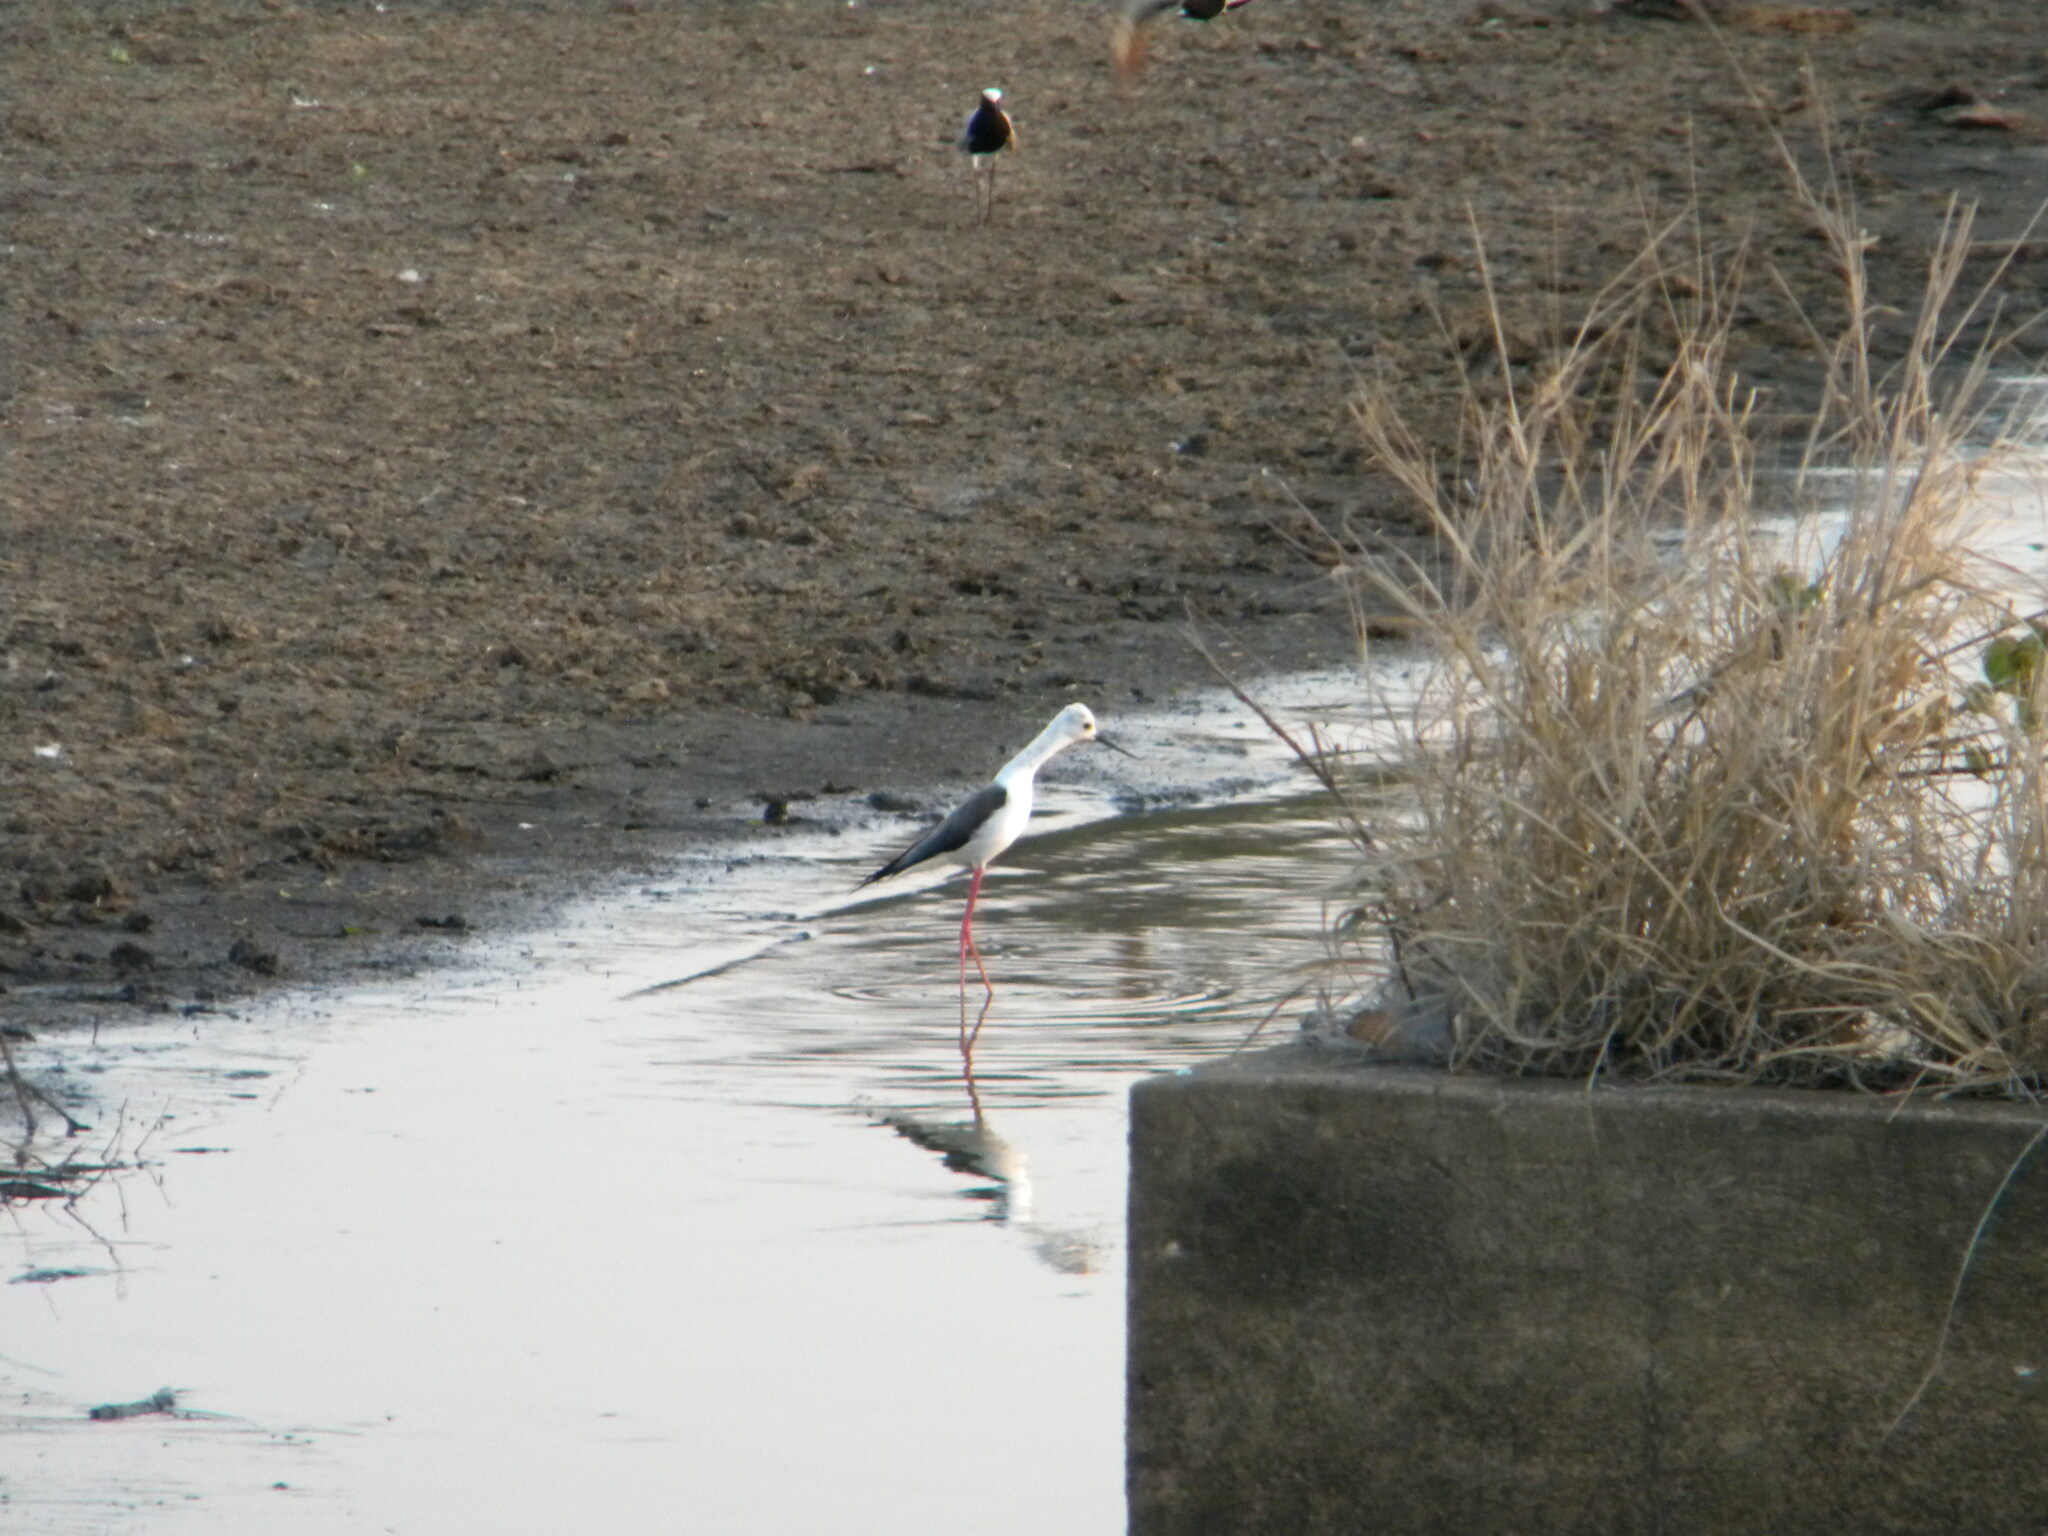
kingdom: Animalia
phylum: Chordata
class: Aves
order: Charadriiformes
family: Recurvirostridae
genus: Himantopus
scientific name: Himantopus himantopus
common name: Black-winged stilt
